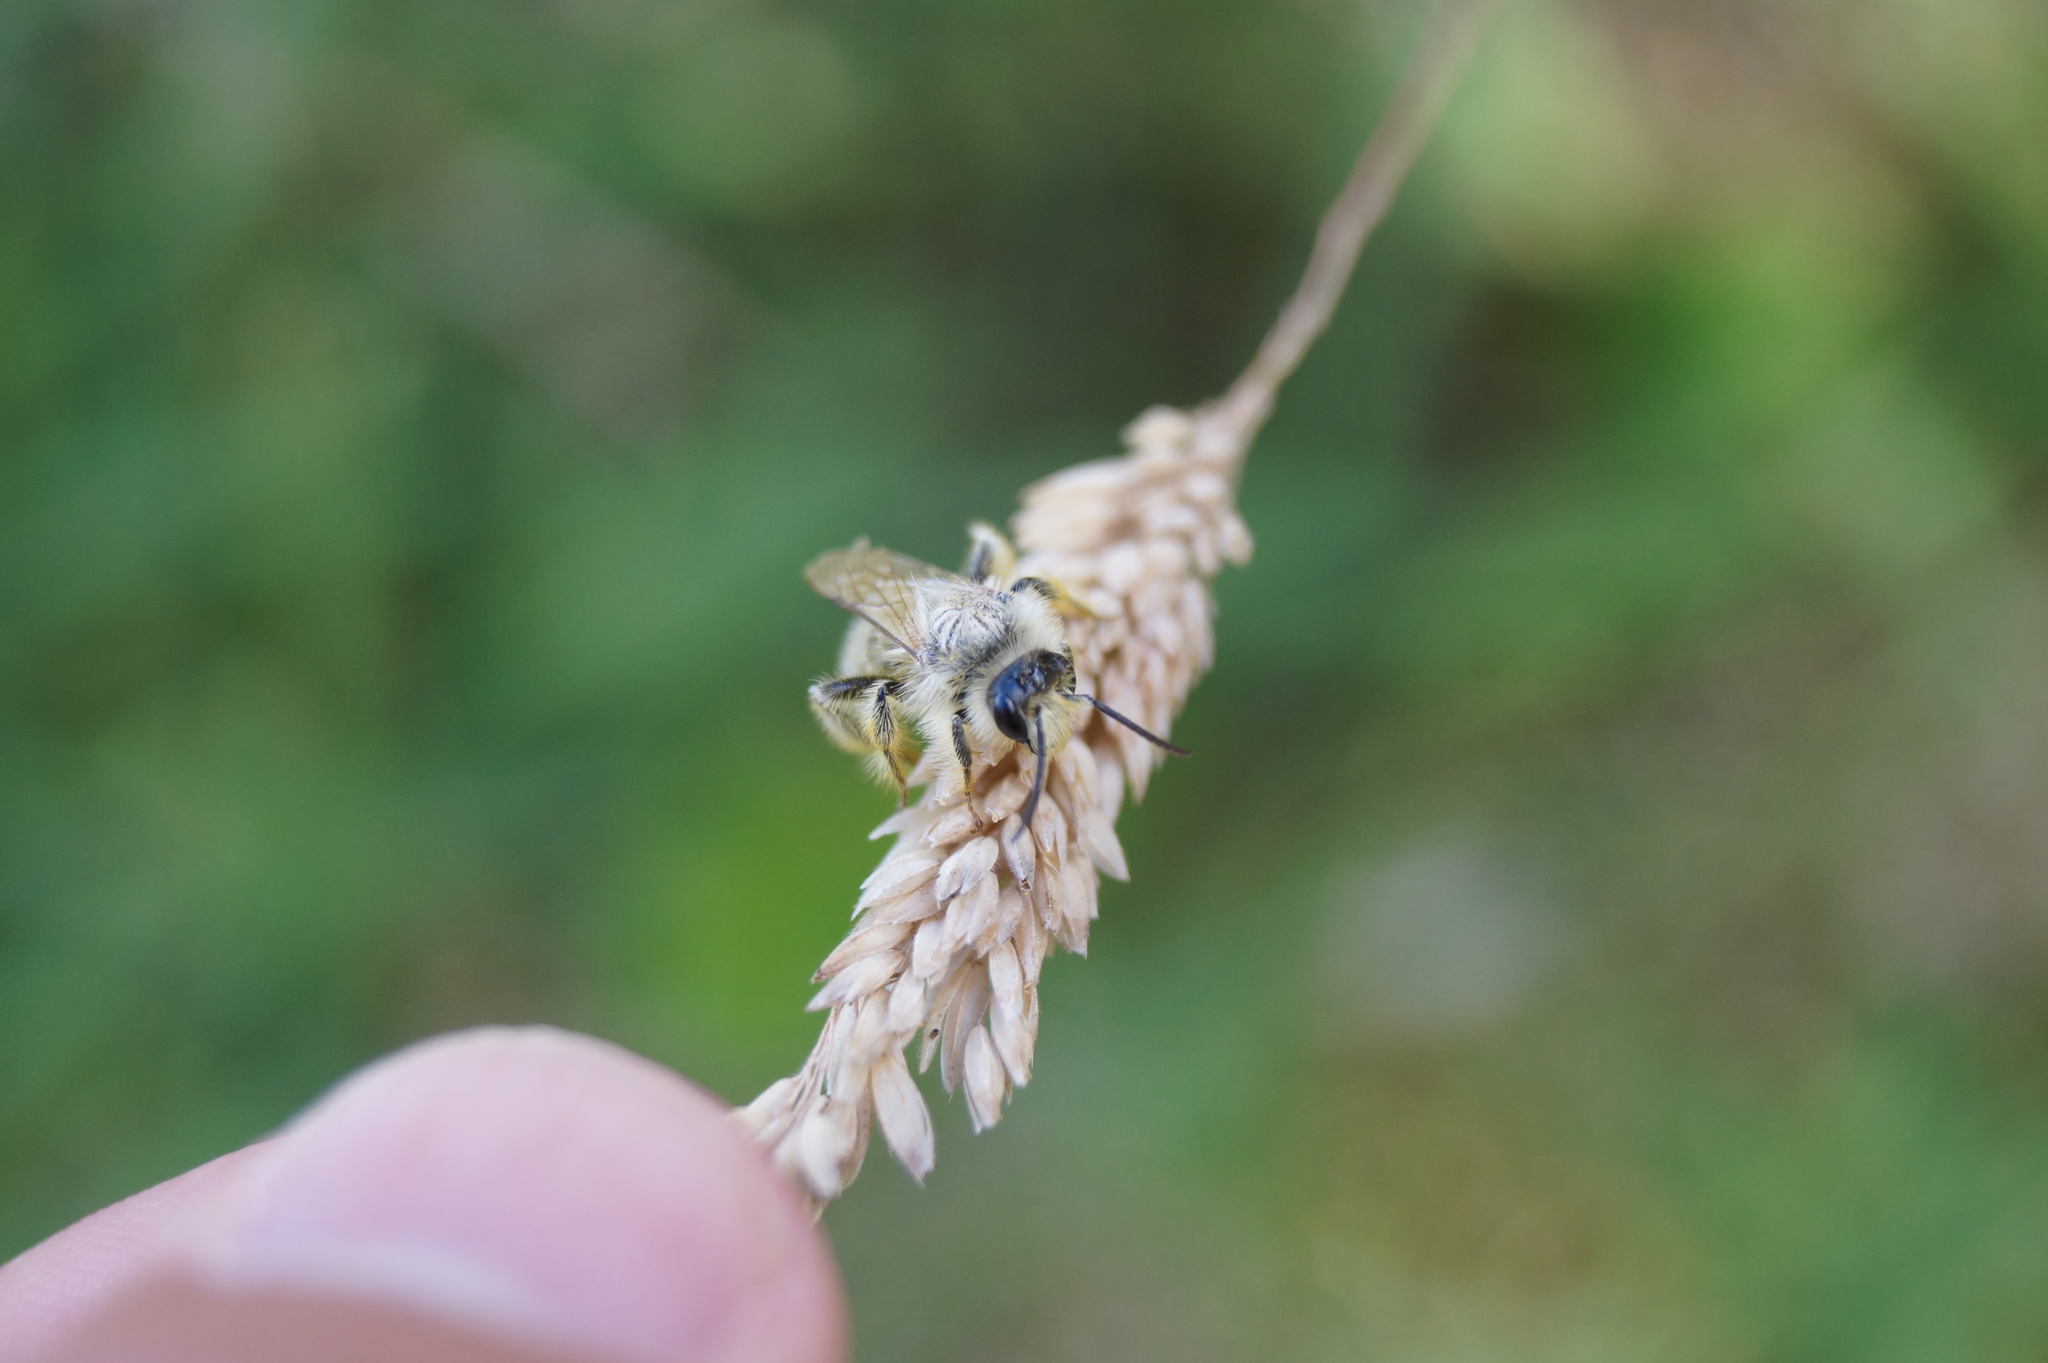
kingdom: Animalia
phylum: Arthropoda
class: Insecta
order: Hymenoptera
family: Melittidae
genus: Dasypoda
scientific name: Dasypoda hirtipes
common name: Pantaloon bee
